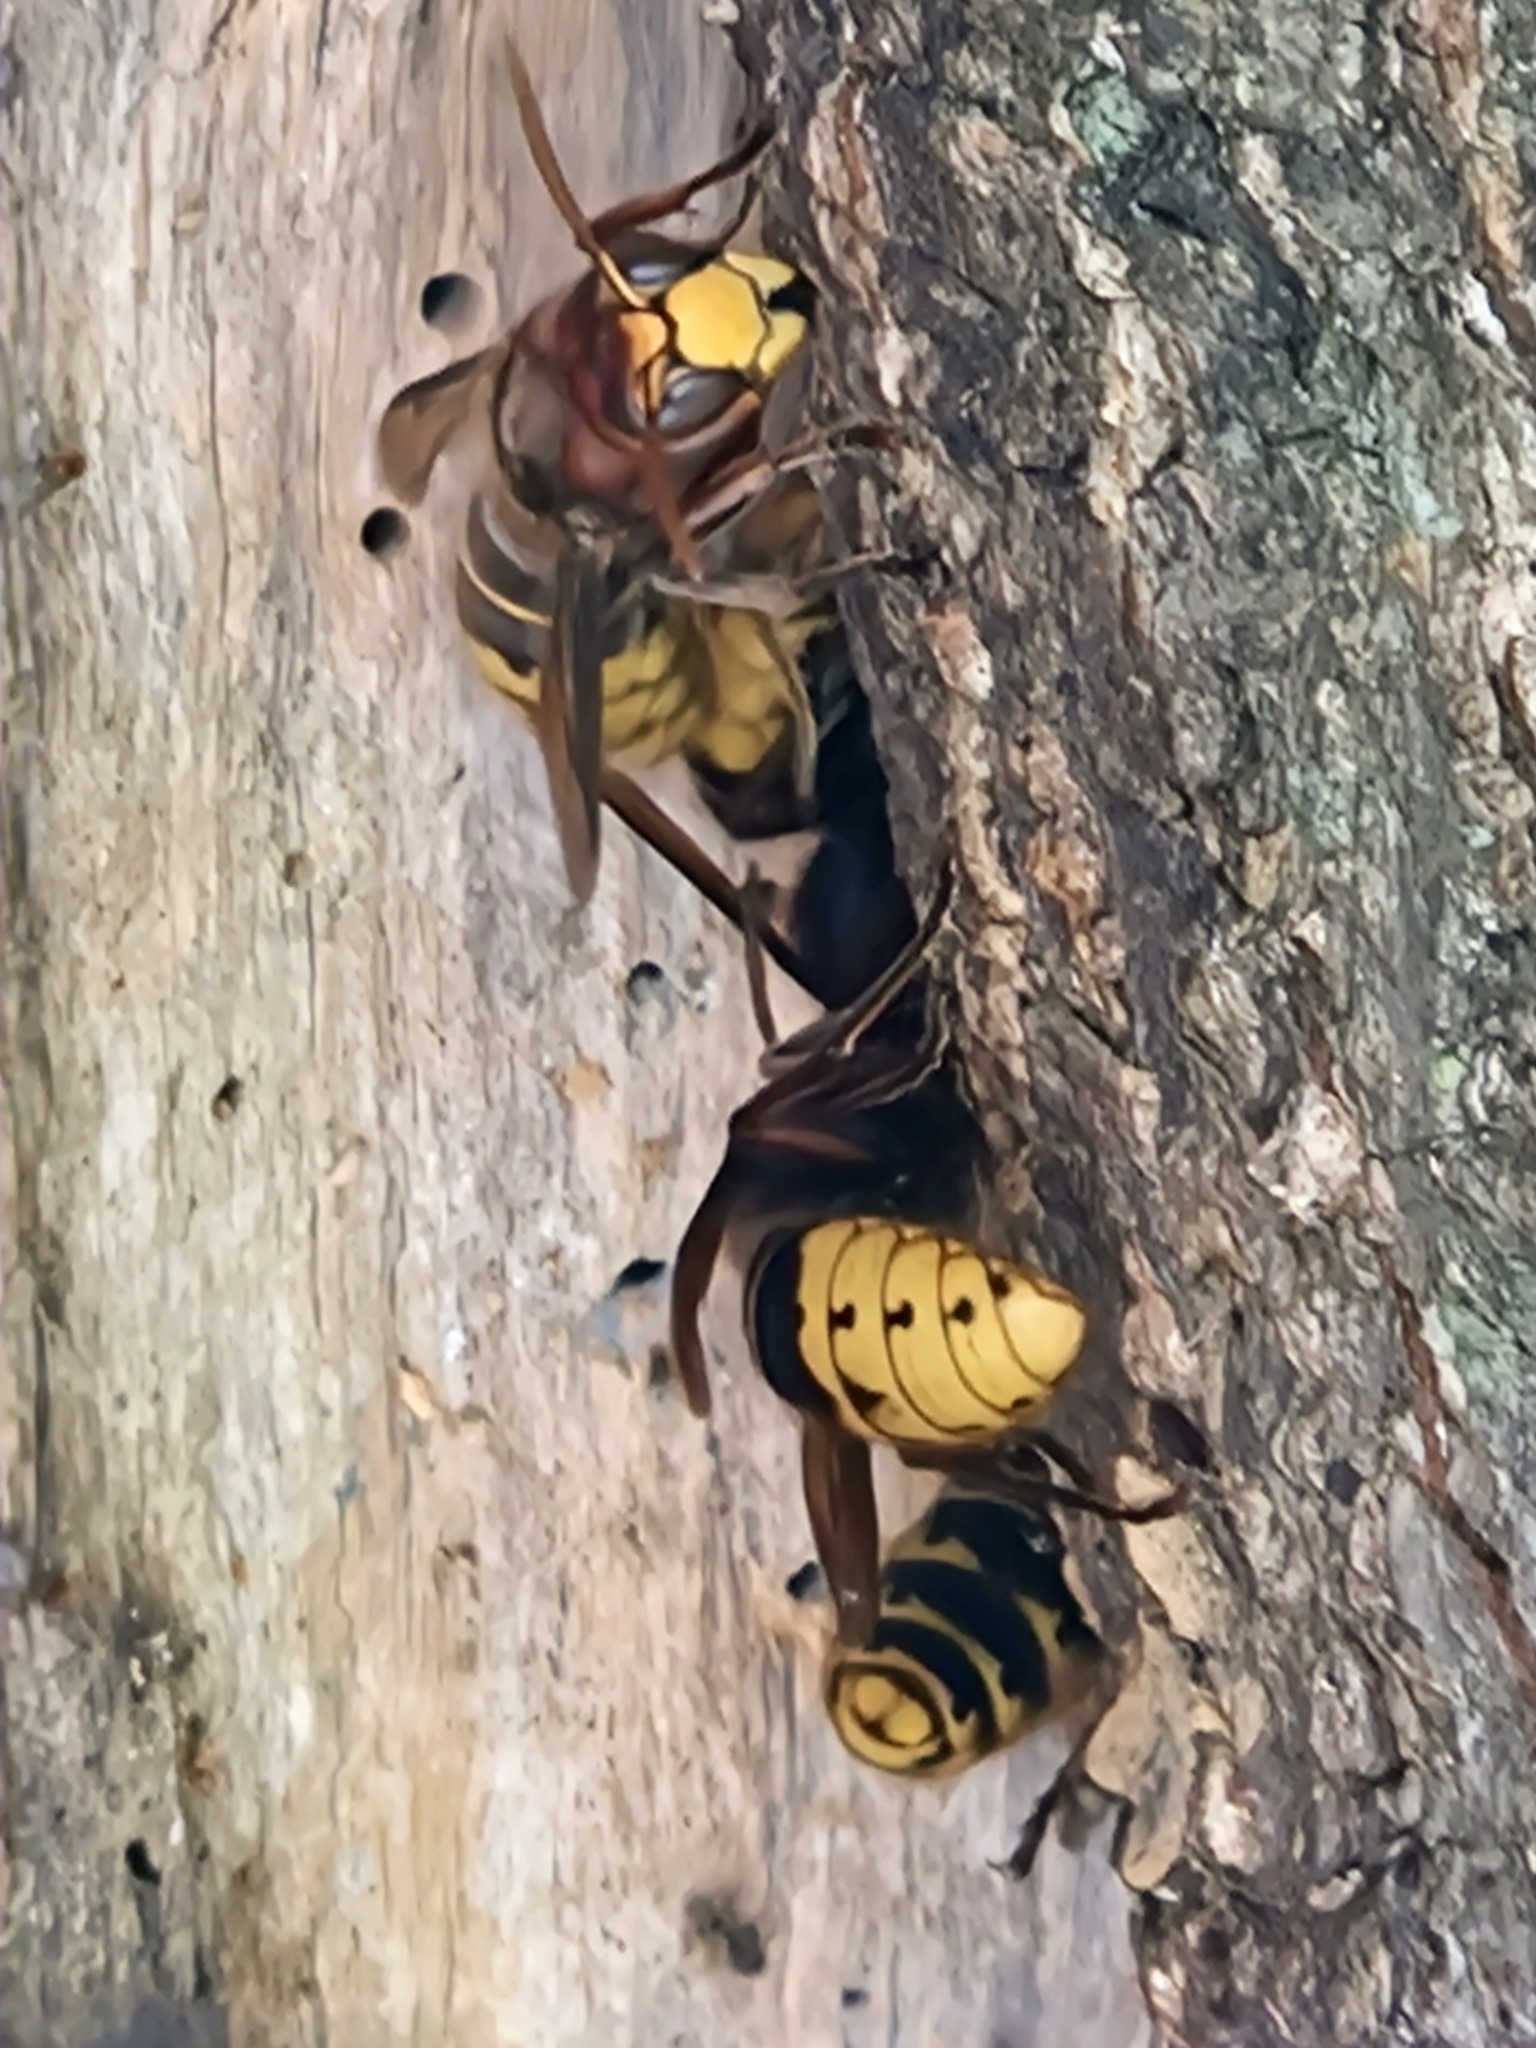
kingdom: Animalia
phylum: Arthropoda
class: Insecta
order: Hymenoptera
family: Vespidae
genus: Vespa
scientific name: Vespa crabro
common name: Hornet
